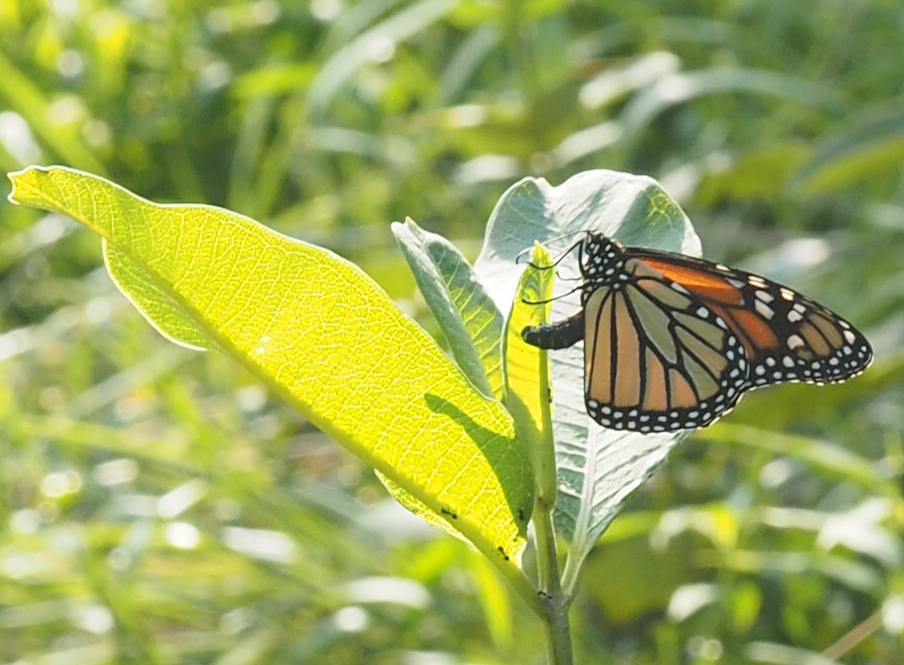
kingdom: Animalia
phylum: Arthropoda
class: Insecta
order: Lepidoptera
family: Nymphalidae
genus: Danaus
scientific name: Danaus plexippus
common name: Monarch
